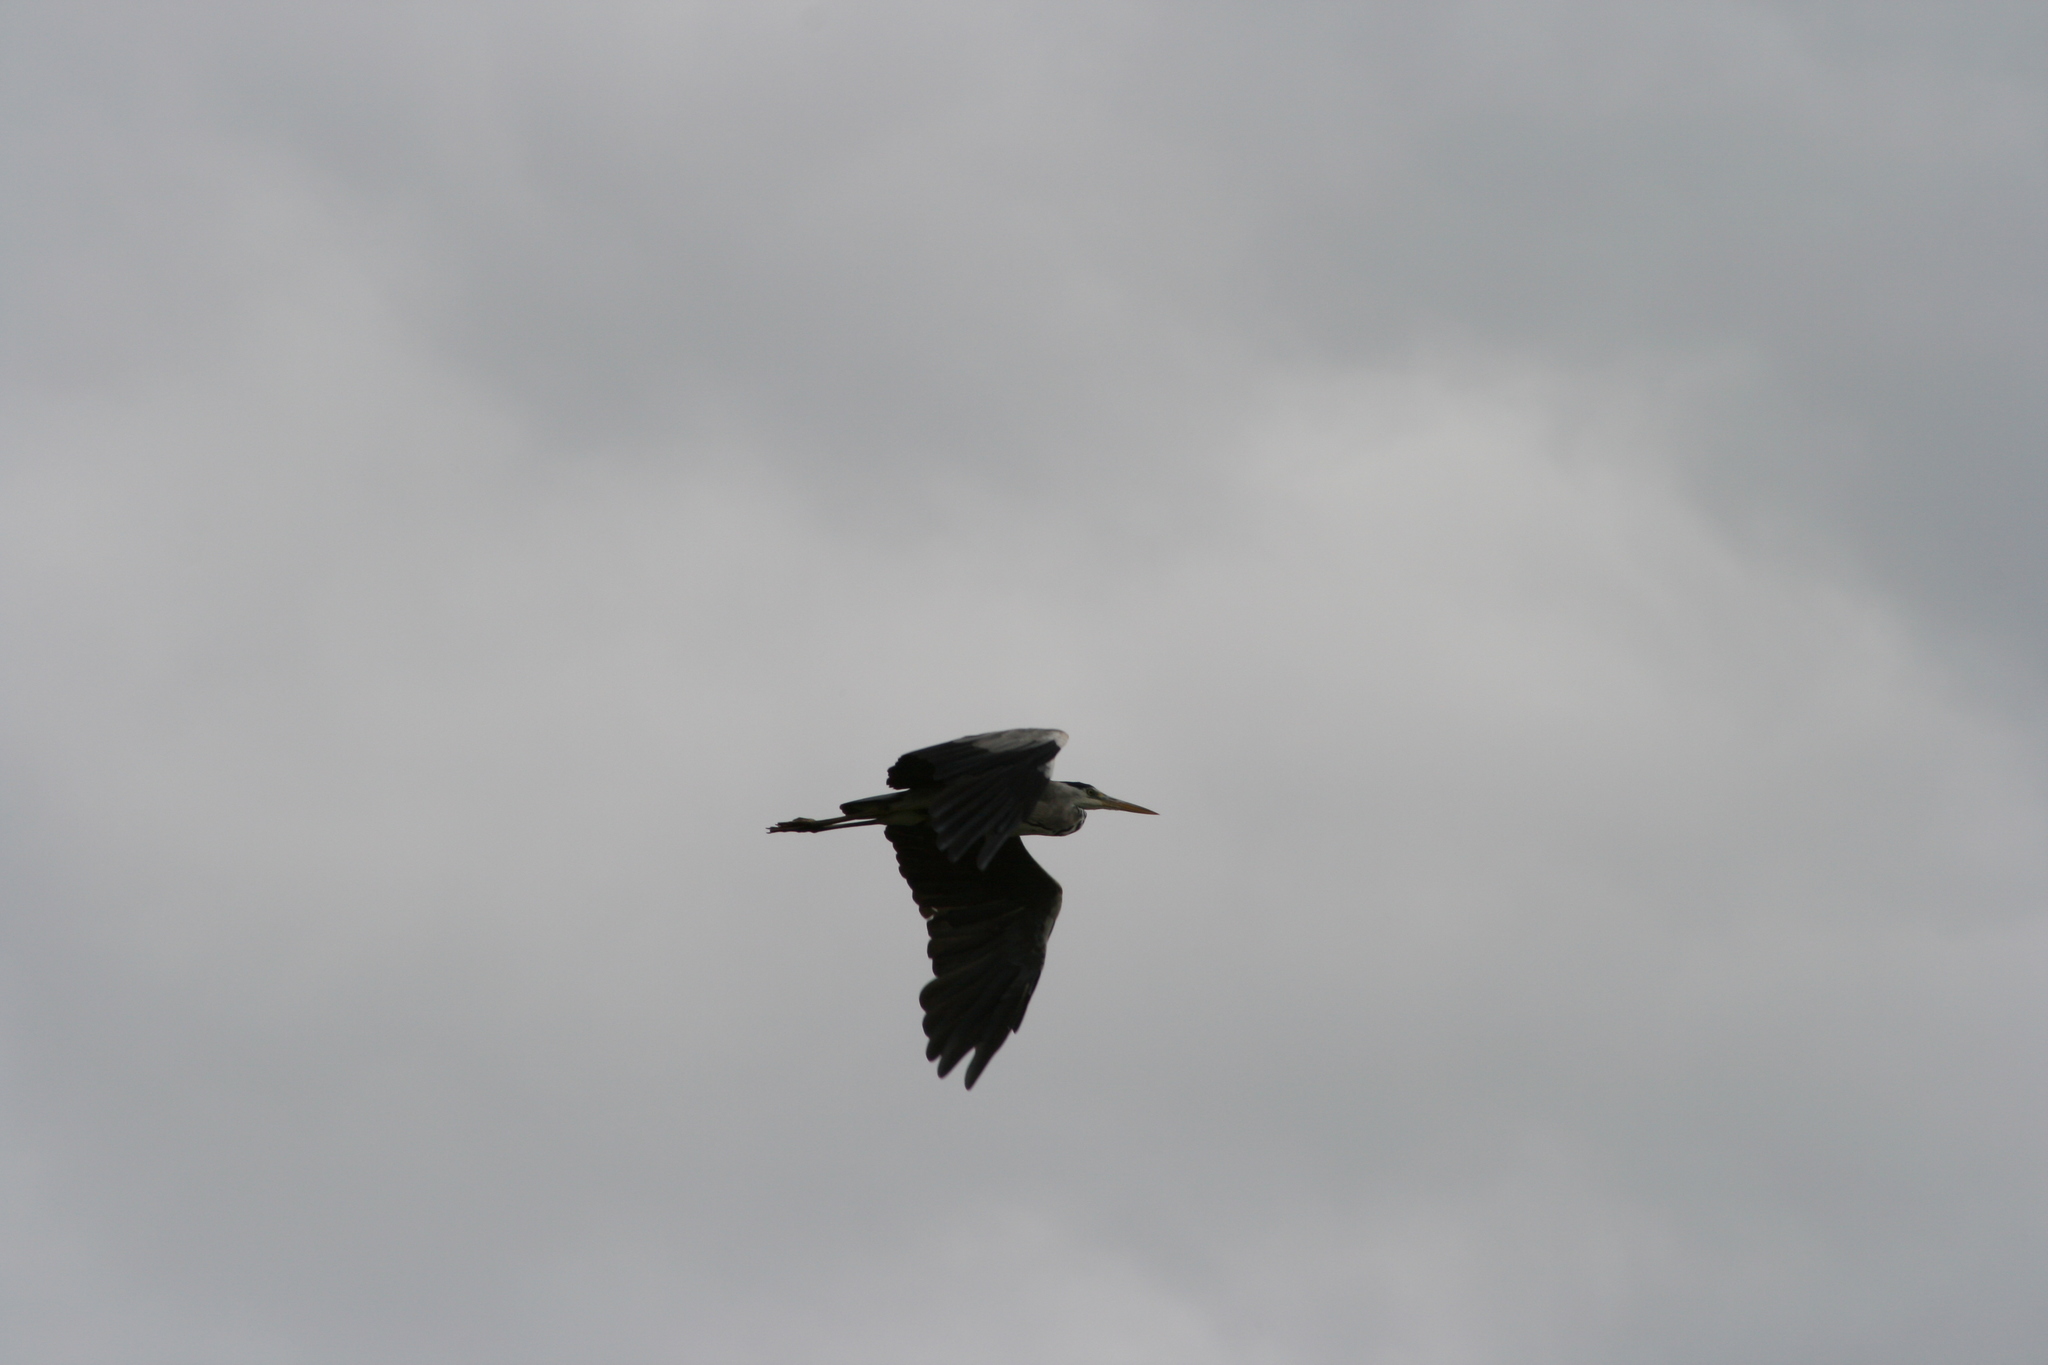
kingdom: Animalia
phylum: Chordata
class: Aves
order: Pelecaniformes
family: Ardeidae
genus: Ardea
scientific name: Ardea cinerea
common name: Grey heron
